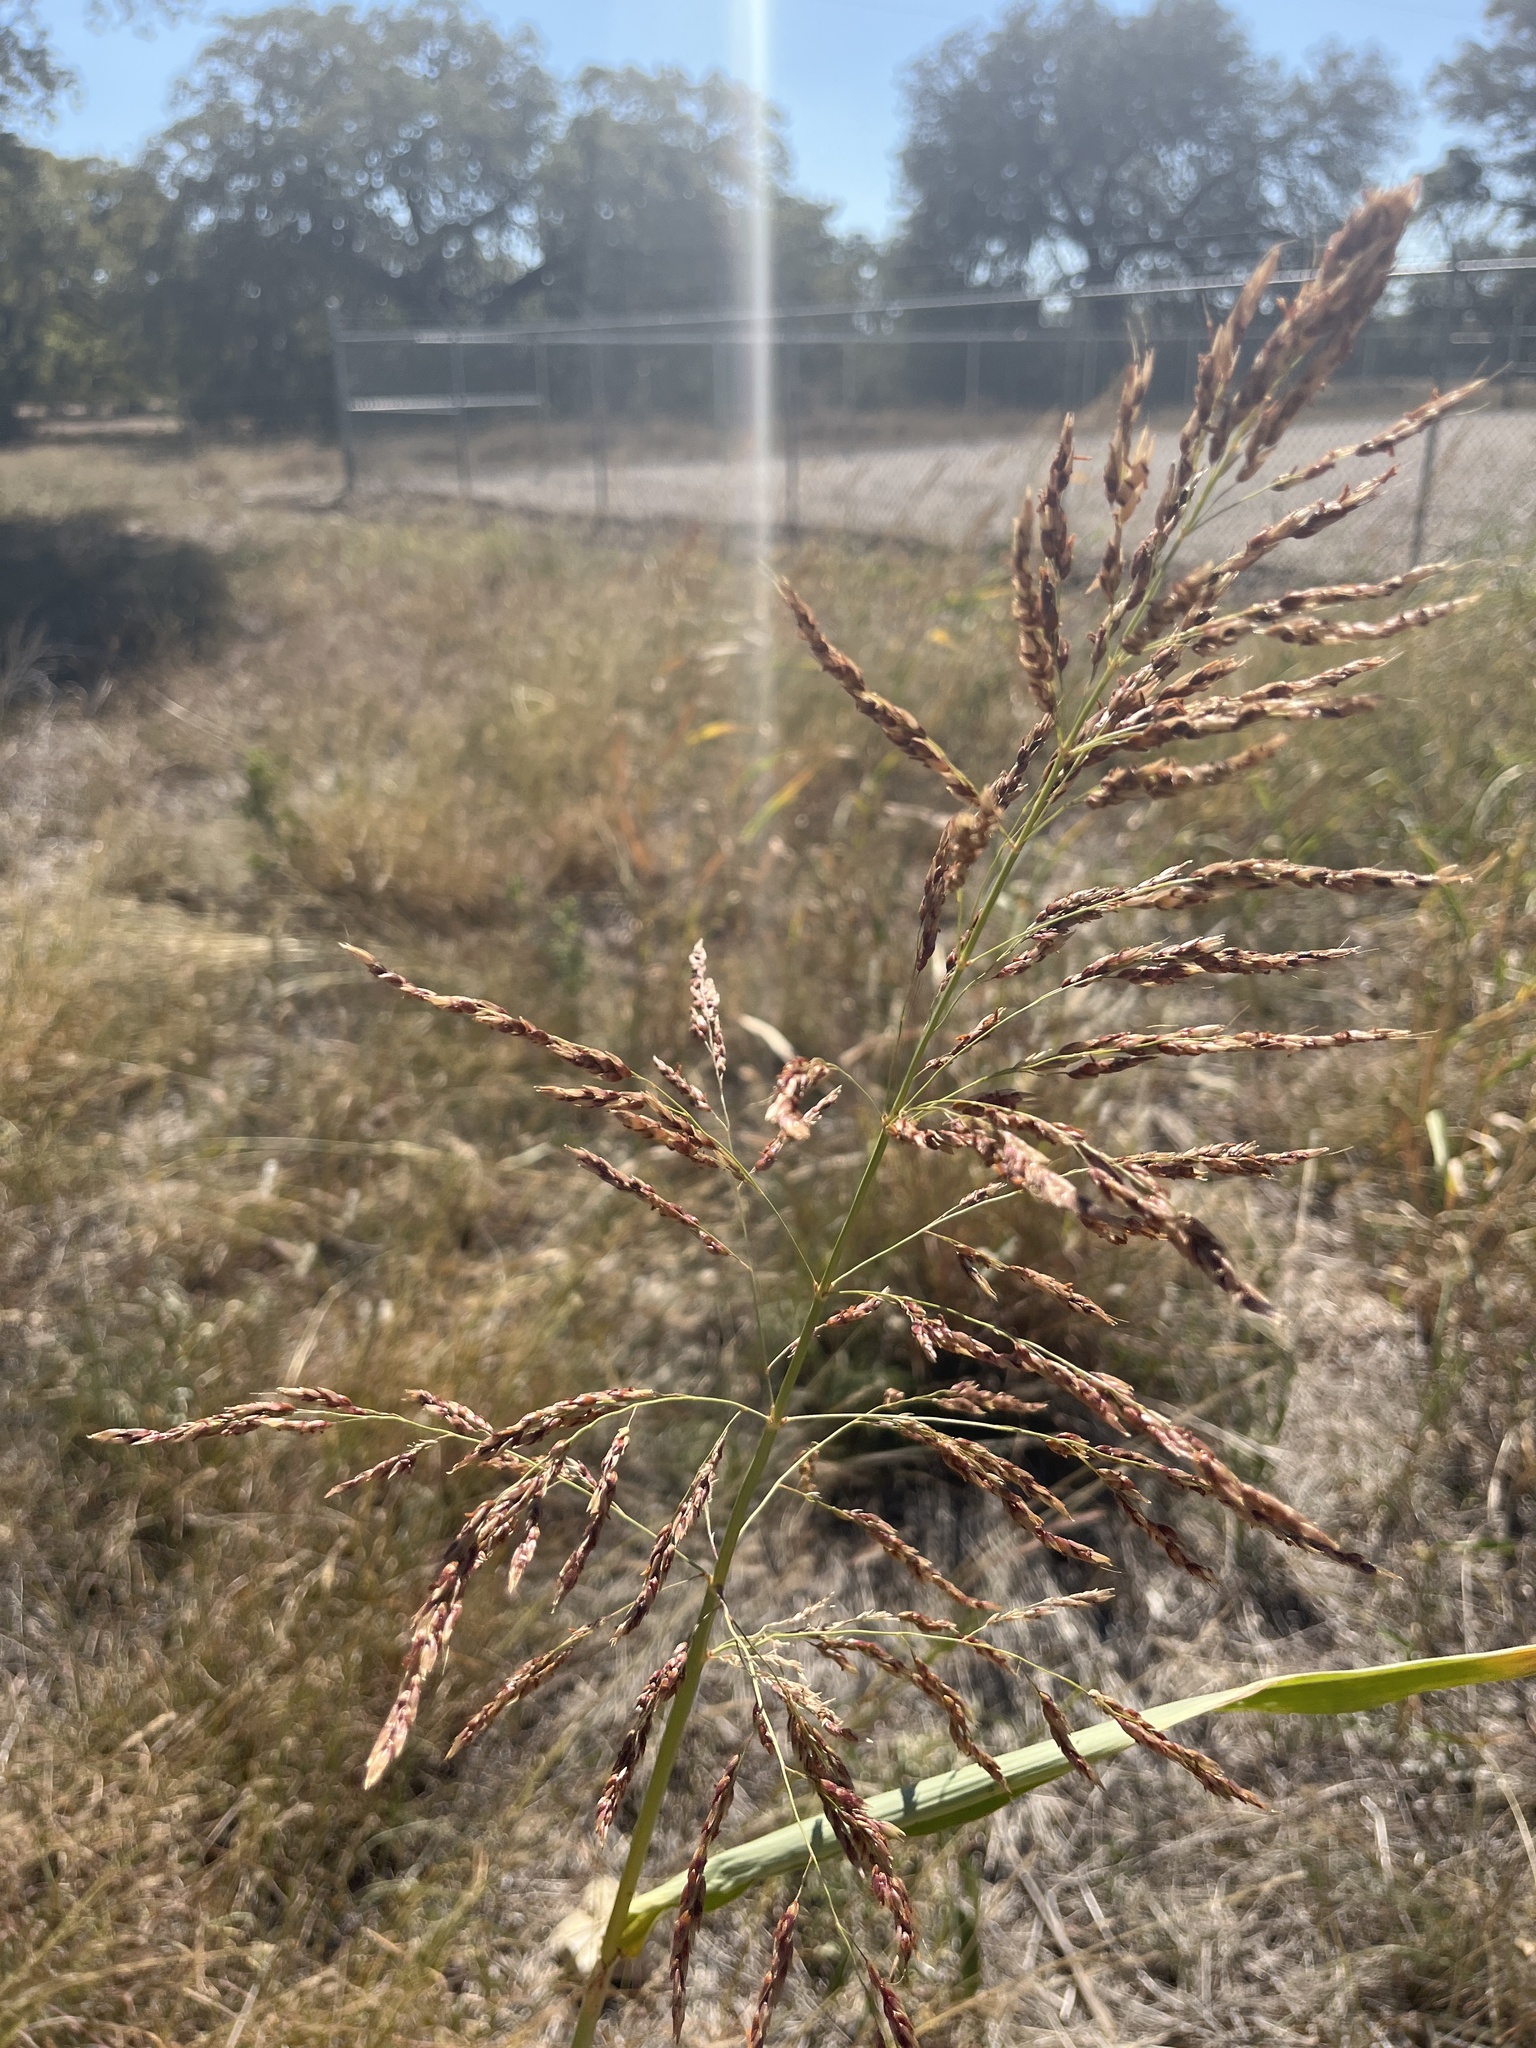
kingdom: Plantae
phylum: Tracheophyta
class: Liliopsida
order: Poales
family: Poaceae
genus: Sorghum
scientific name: Sorghum halepense
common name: Johnson-grass
